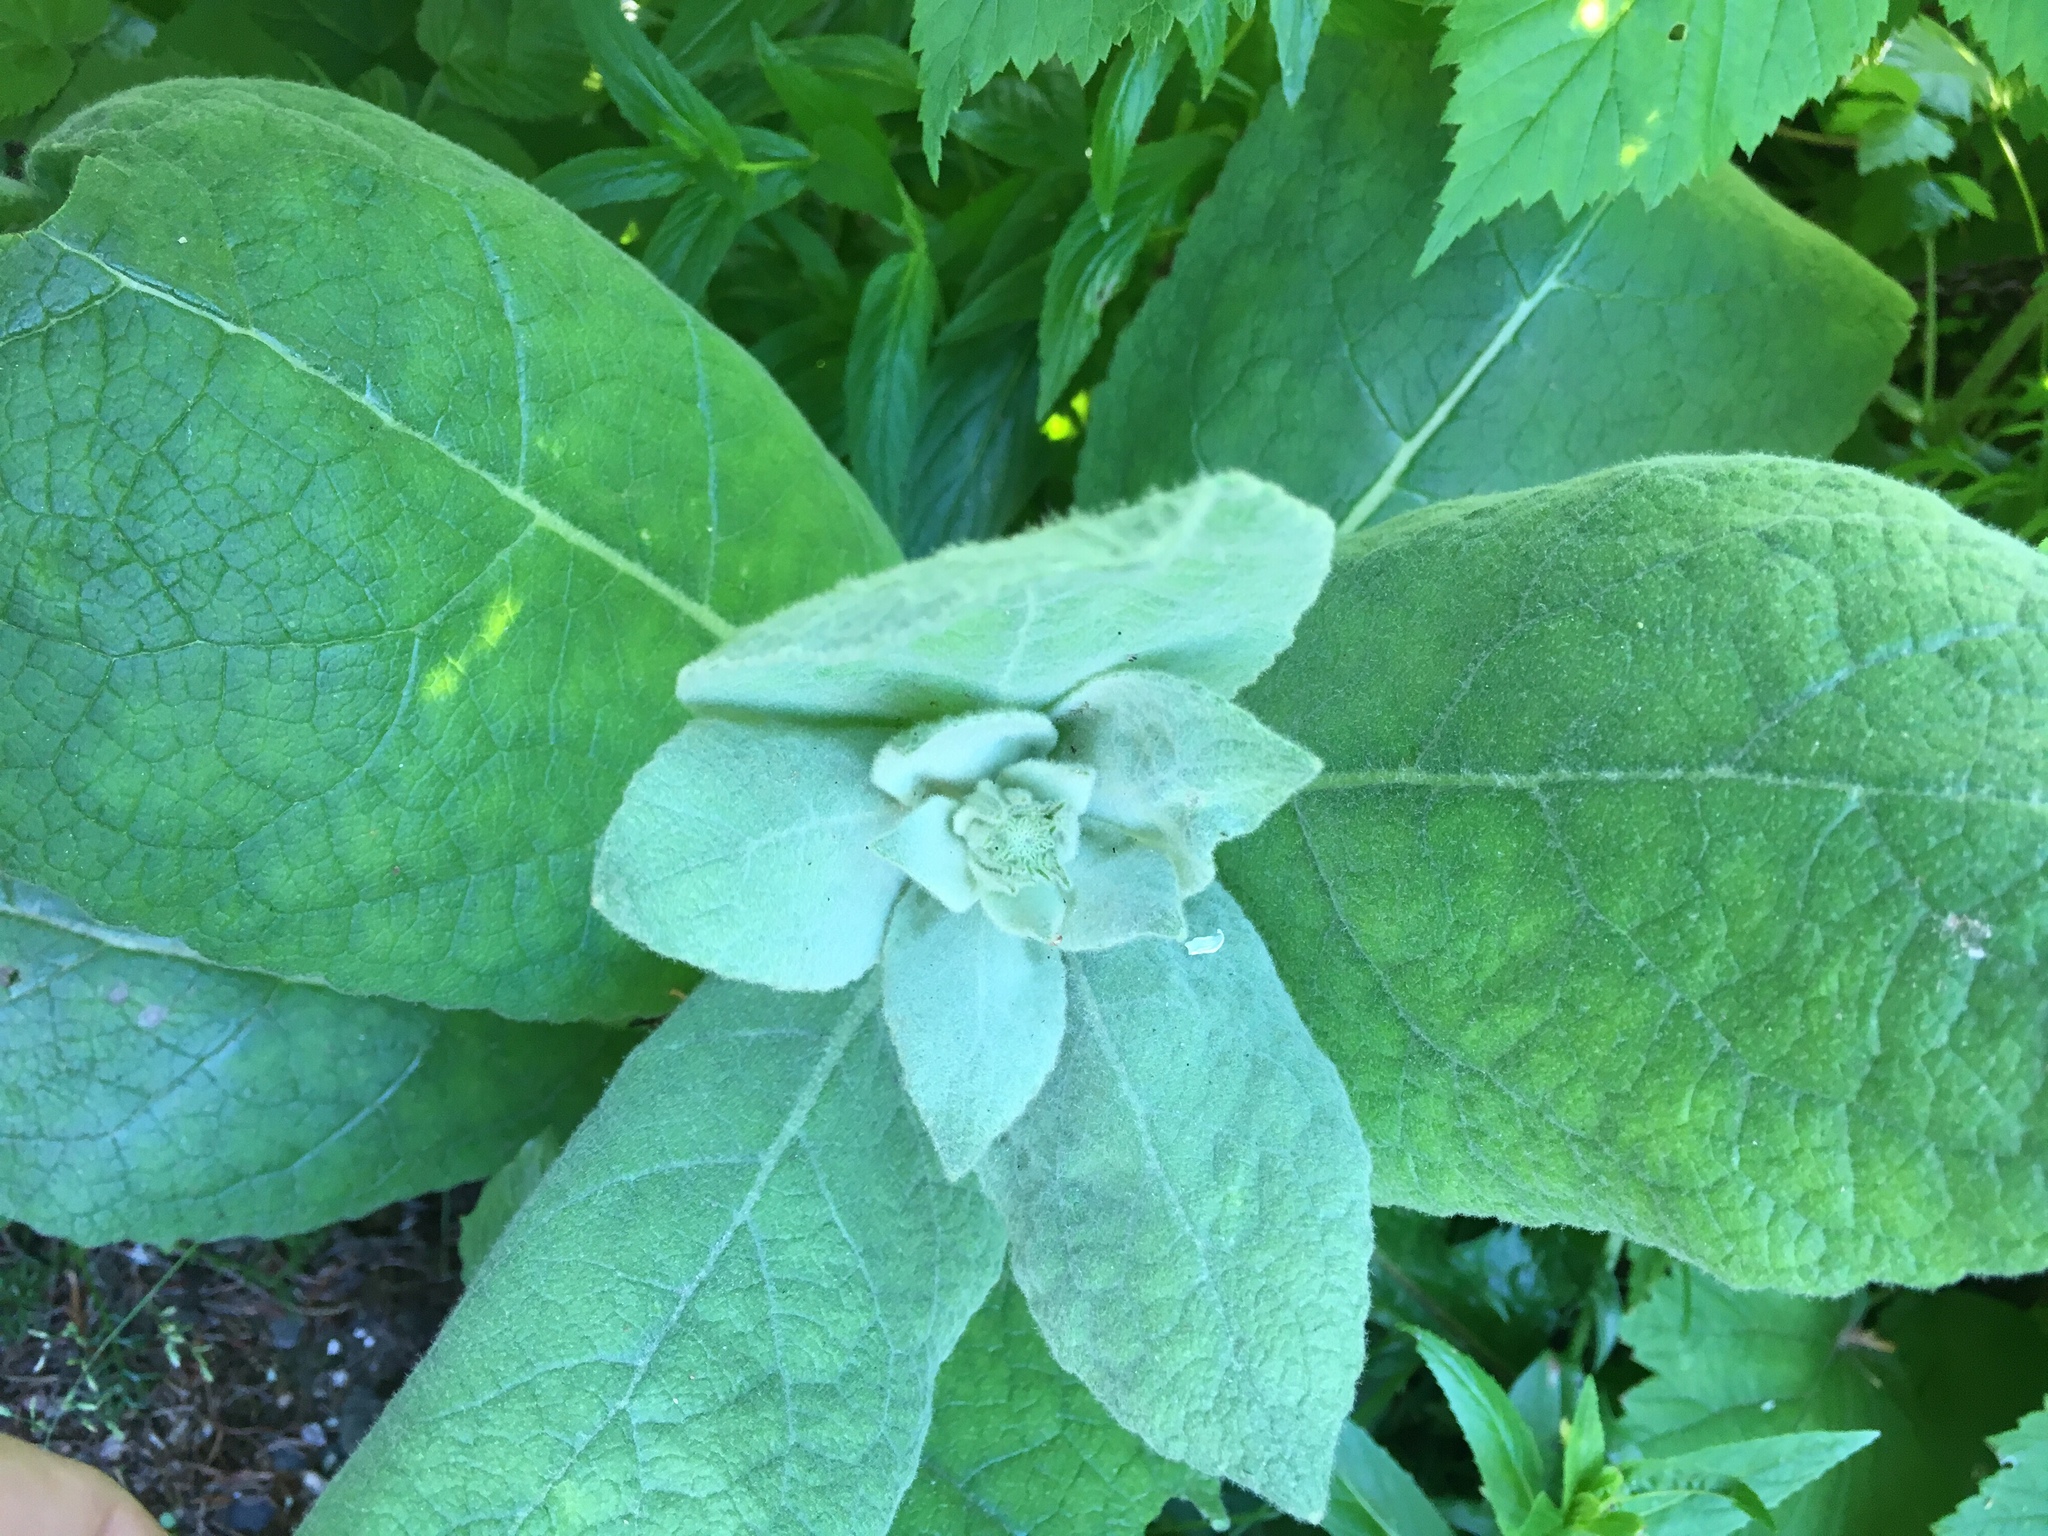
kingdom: Plantae
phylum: Tracheophyta
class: Magnoliopsida
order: Lamiales
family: Scrophulariaceae
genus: Verbascum
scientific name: Verbascum thapsus
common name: Common mullein
